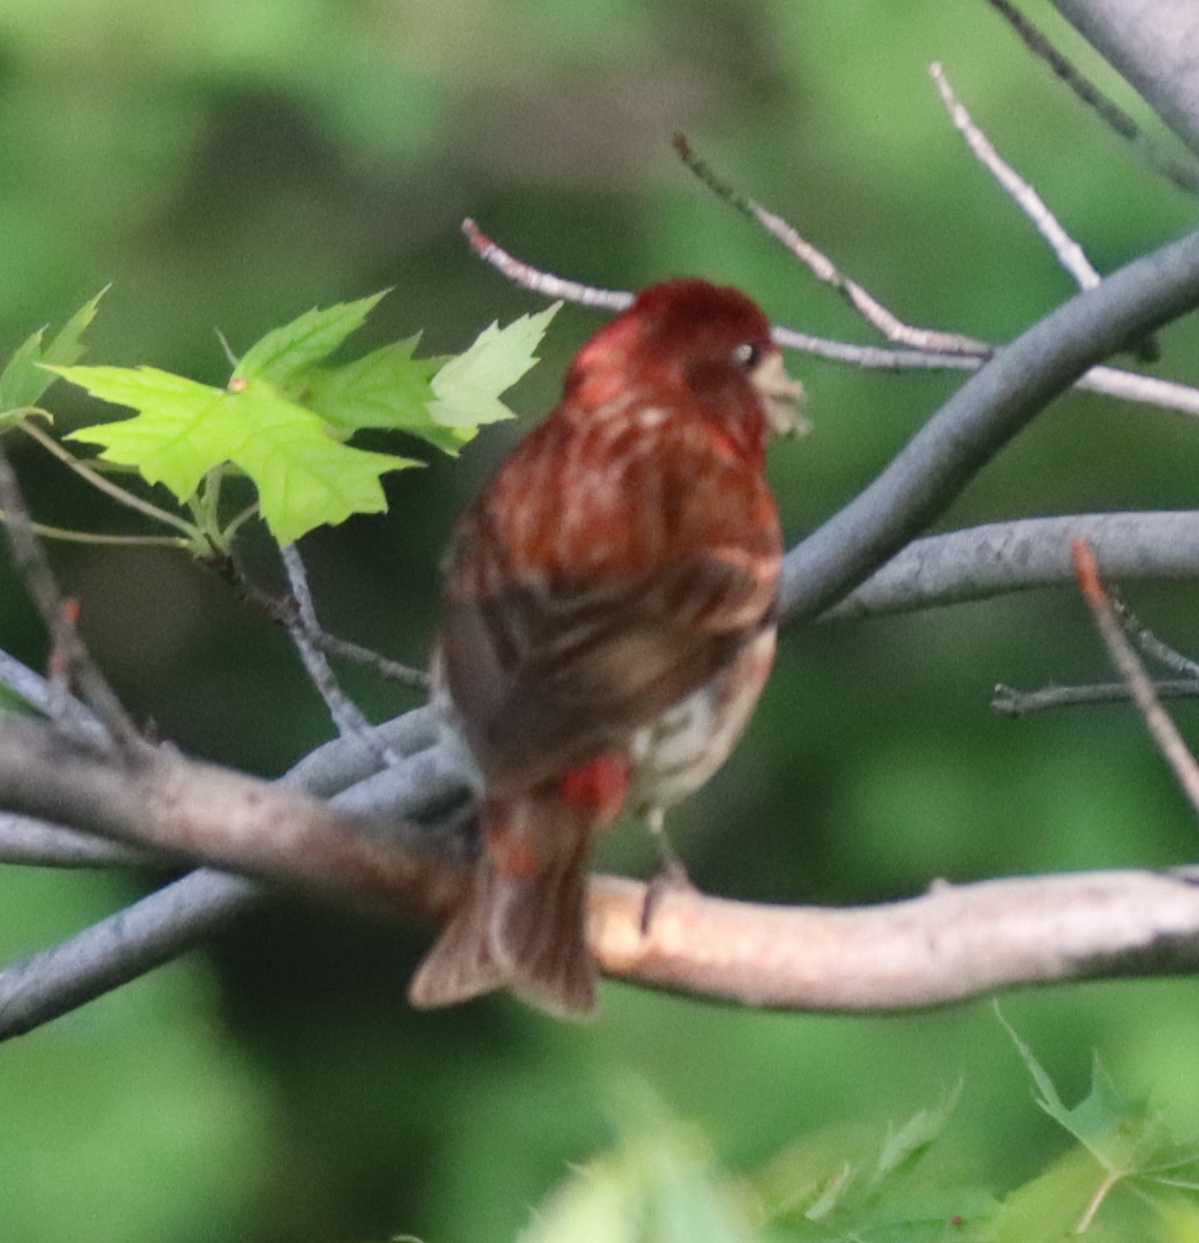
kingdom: Animalia
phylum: Chordata
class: Aves
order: Passeriformes
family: Fringillidae
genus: Haemorhous
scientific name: Haemorhous purpureus
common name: Purple finch
